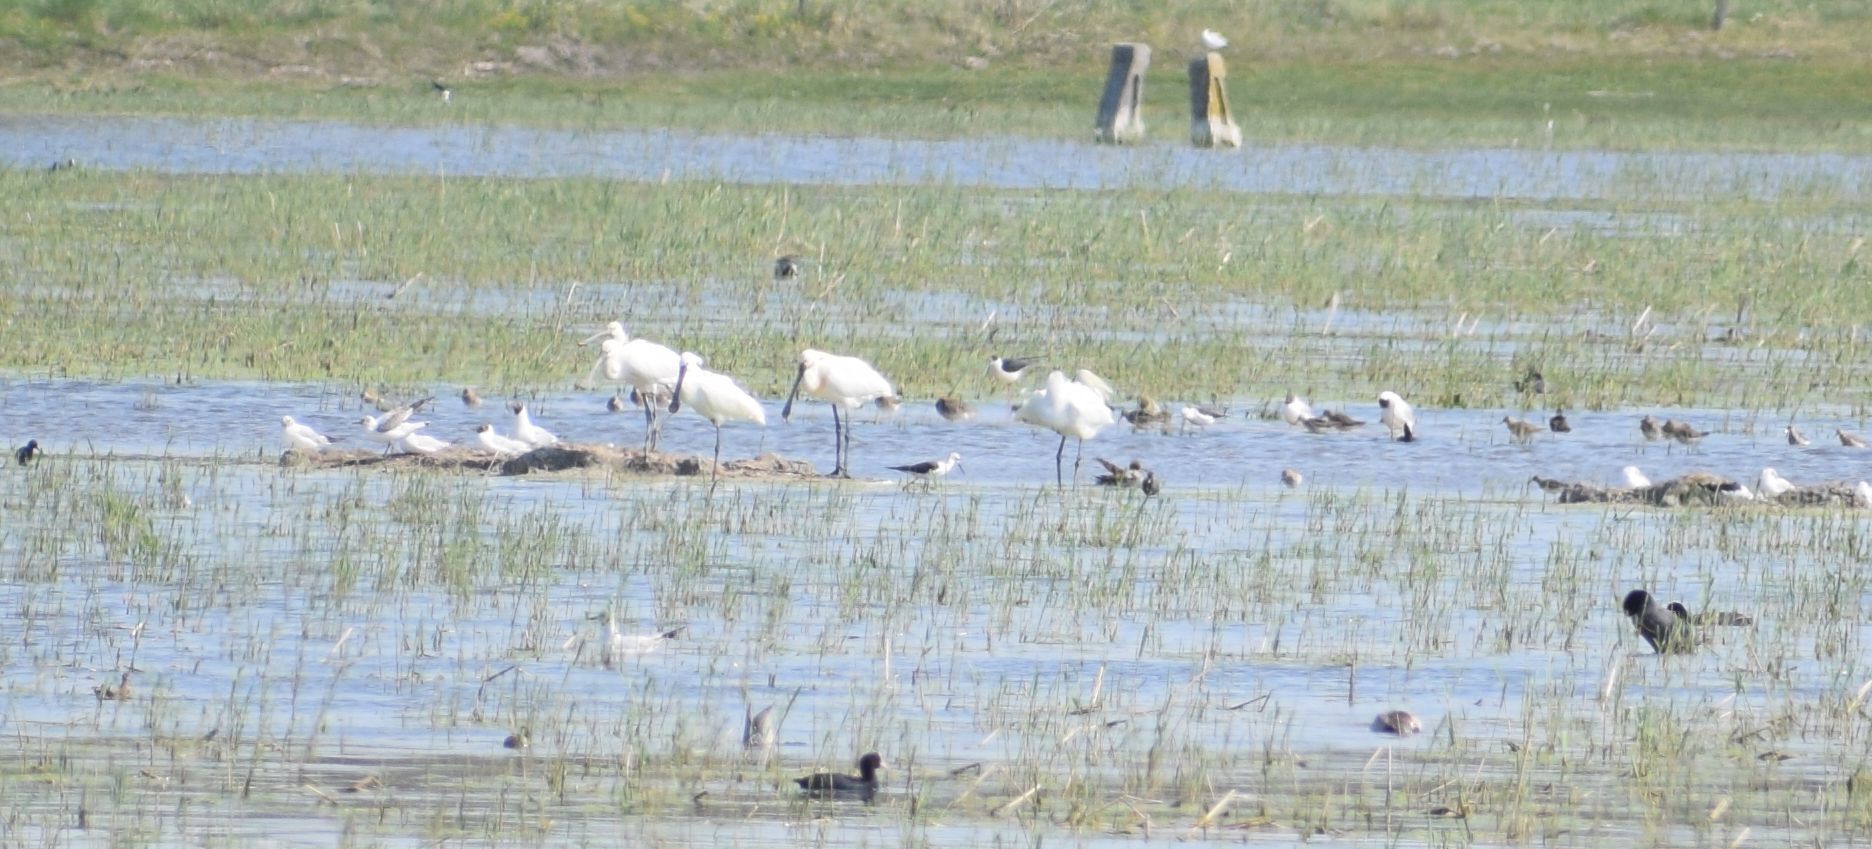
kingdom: Animalia
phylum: Chordata
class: Aves
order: Pelecaniformes
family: Threskiornithidae
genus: Platalea
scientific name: Platalea leucorodia
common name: Eurasian spoonbill
